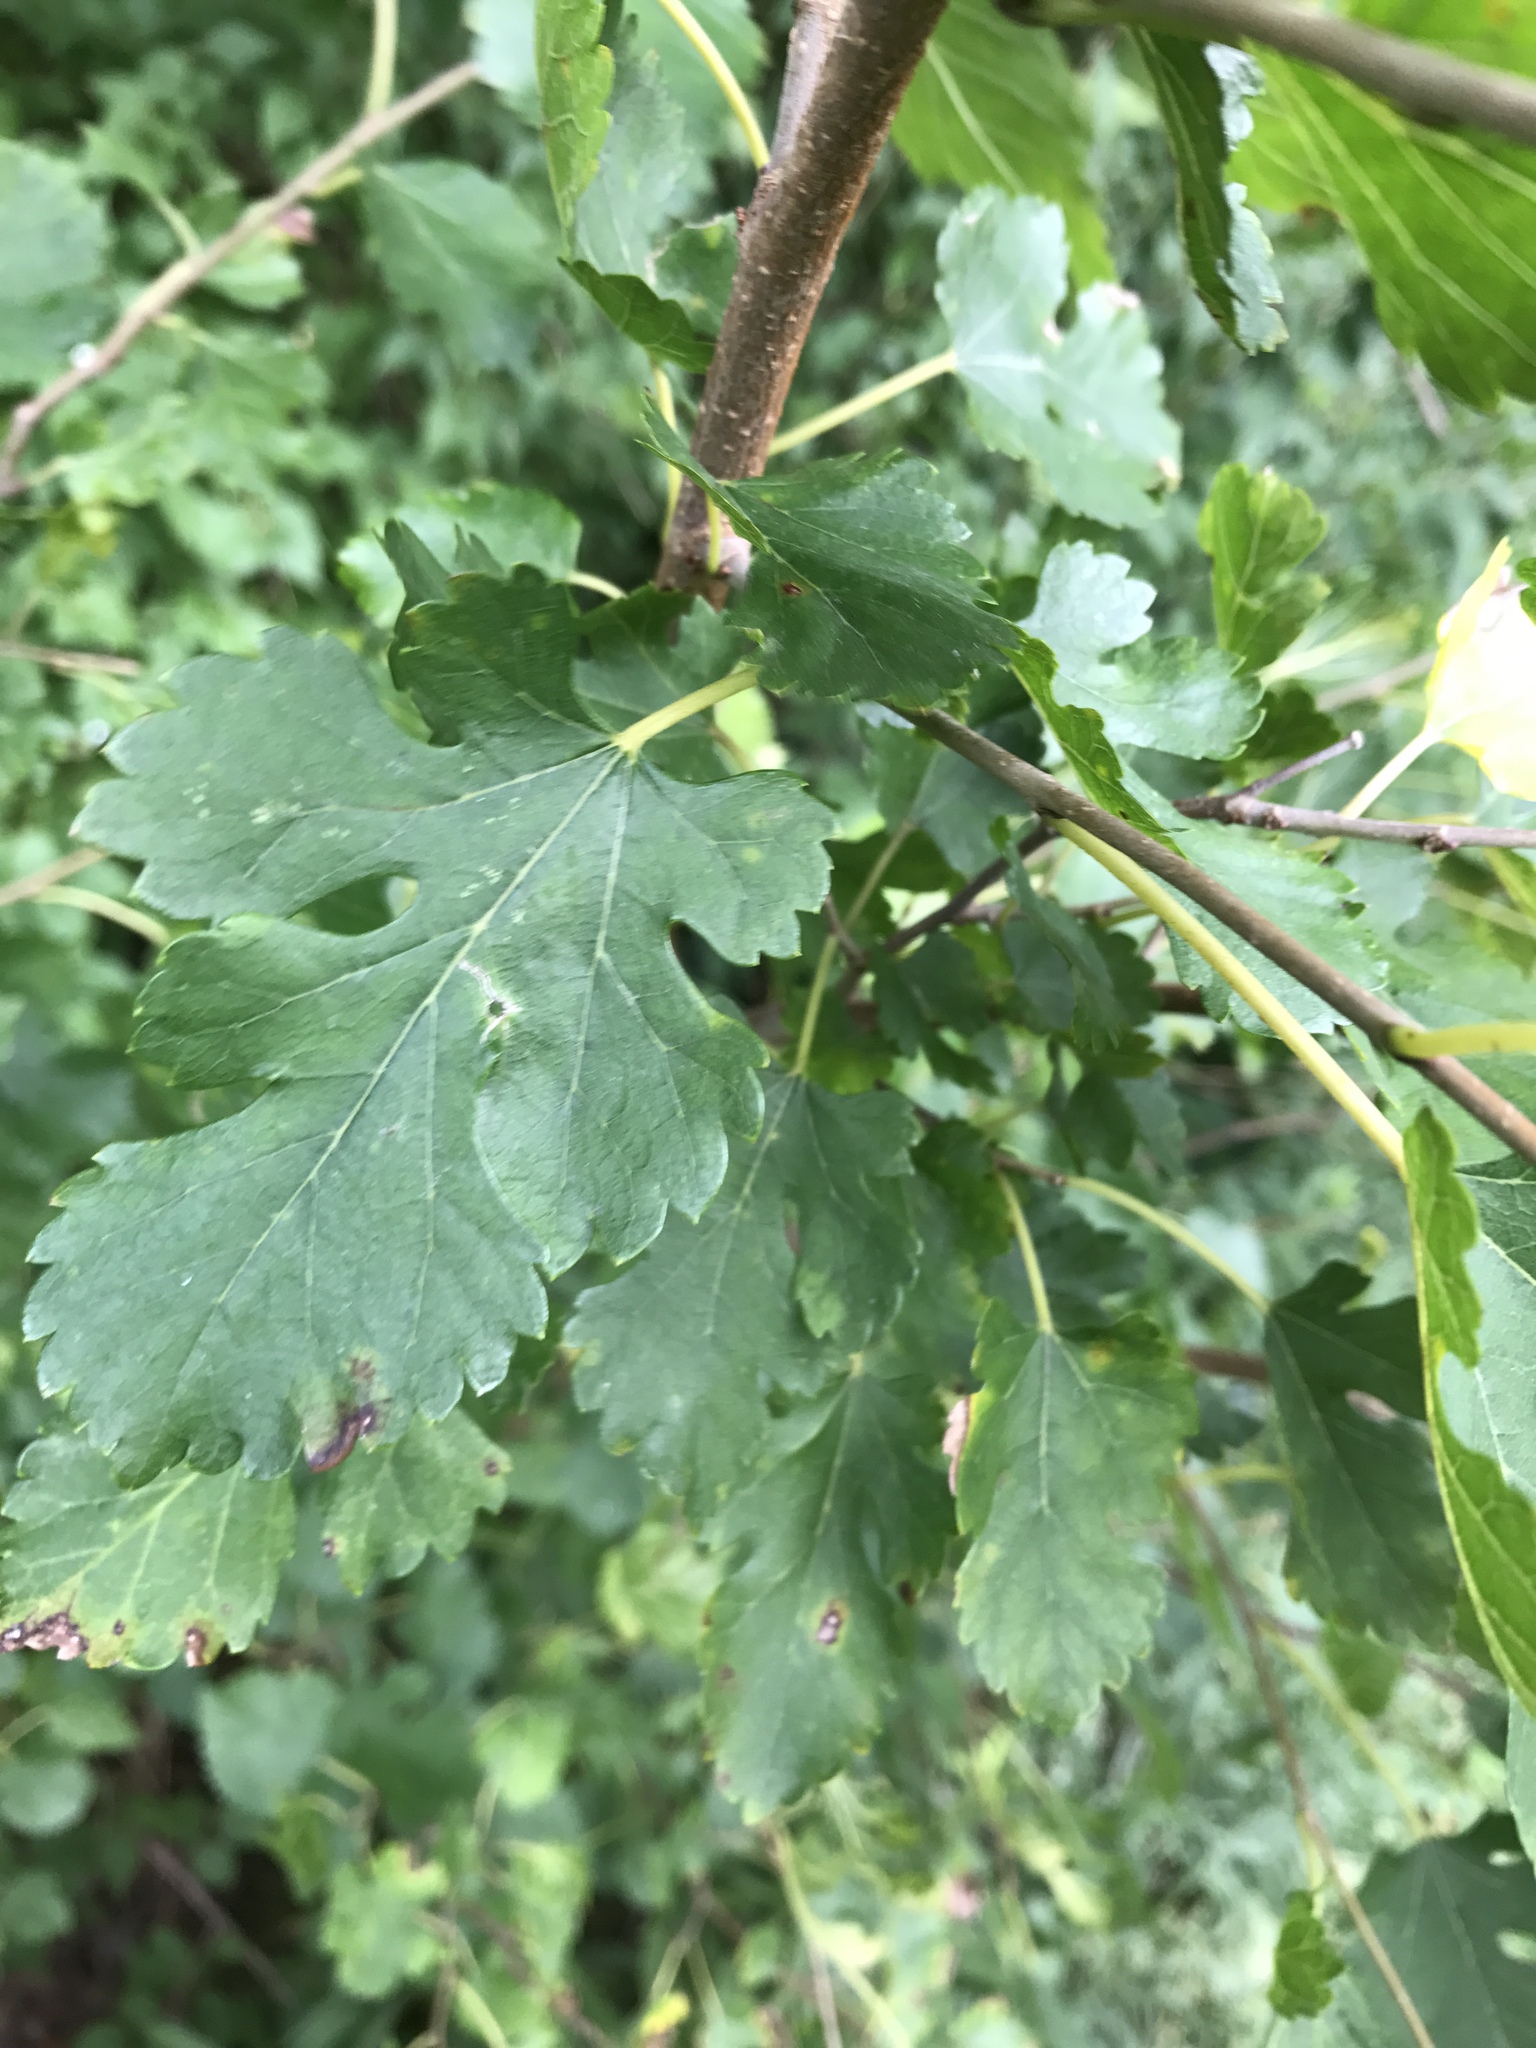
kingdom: Plantae
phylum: Tracheophyta
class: Magnoliopsida
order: Rosales
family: Moraceae
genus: Morus
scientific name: Morus alba
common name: White mulberry
